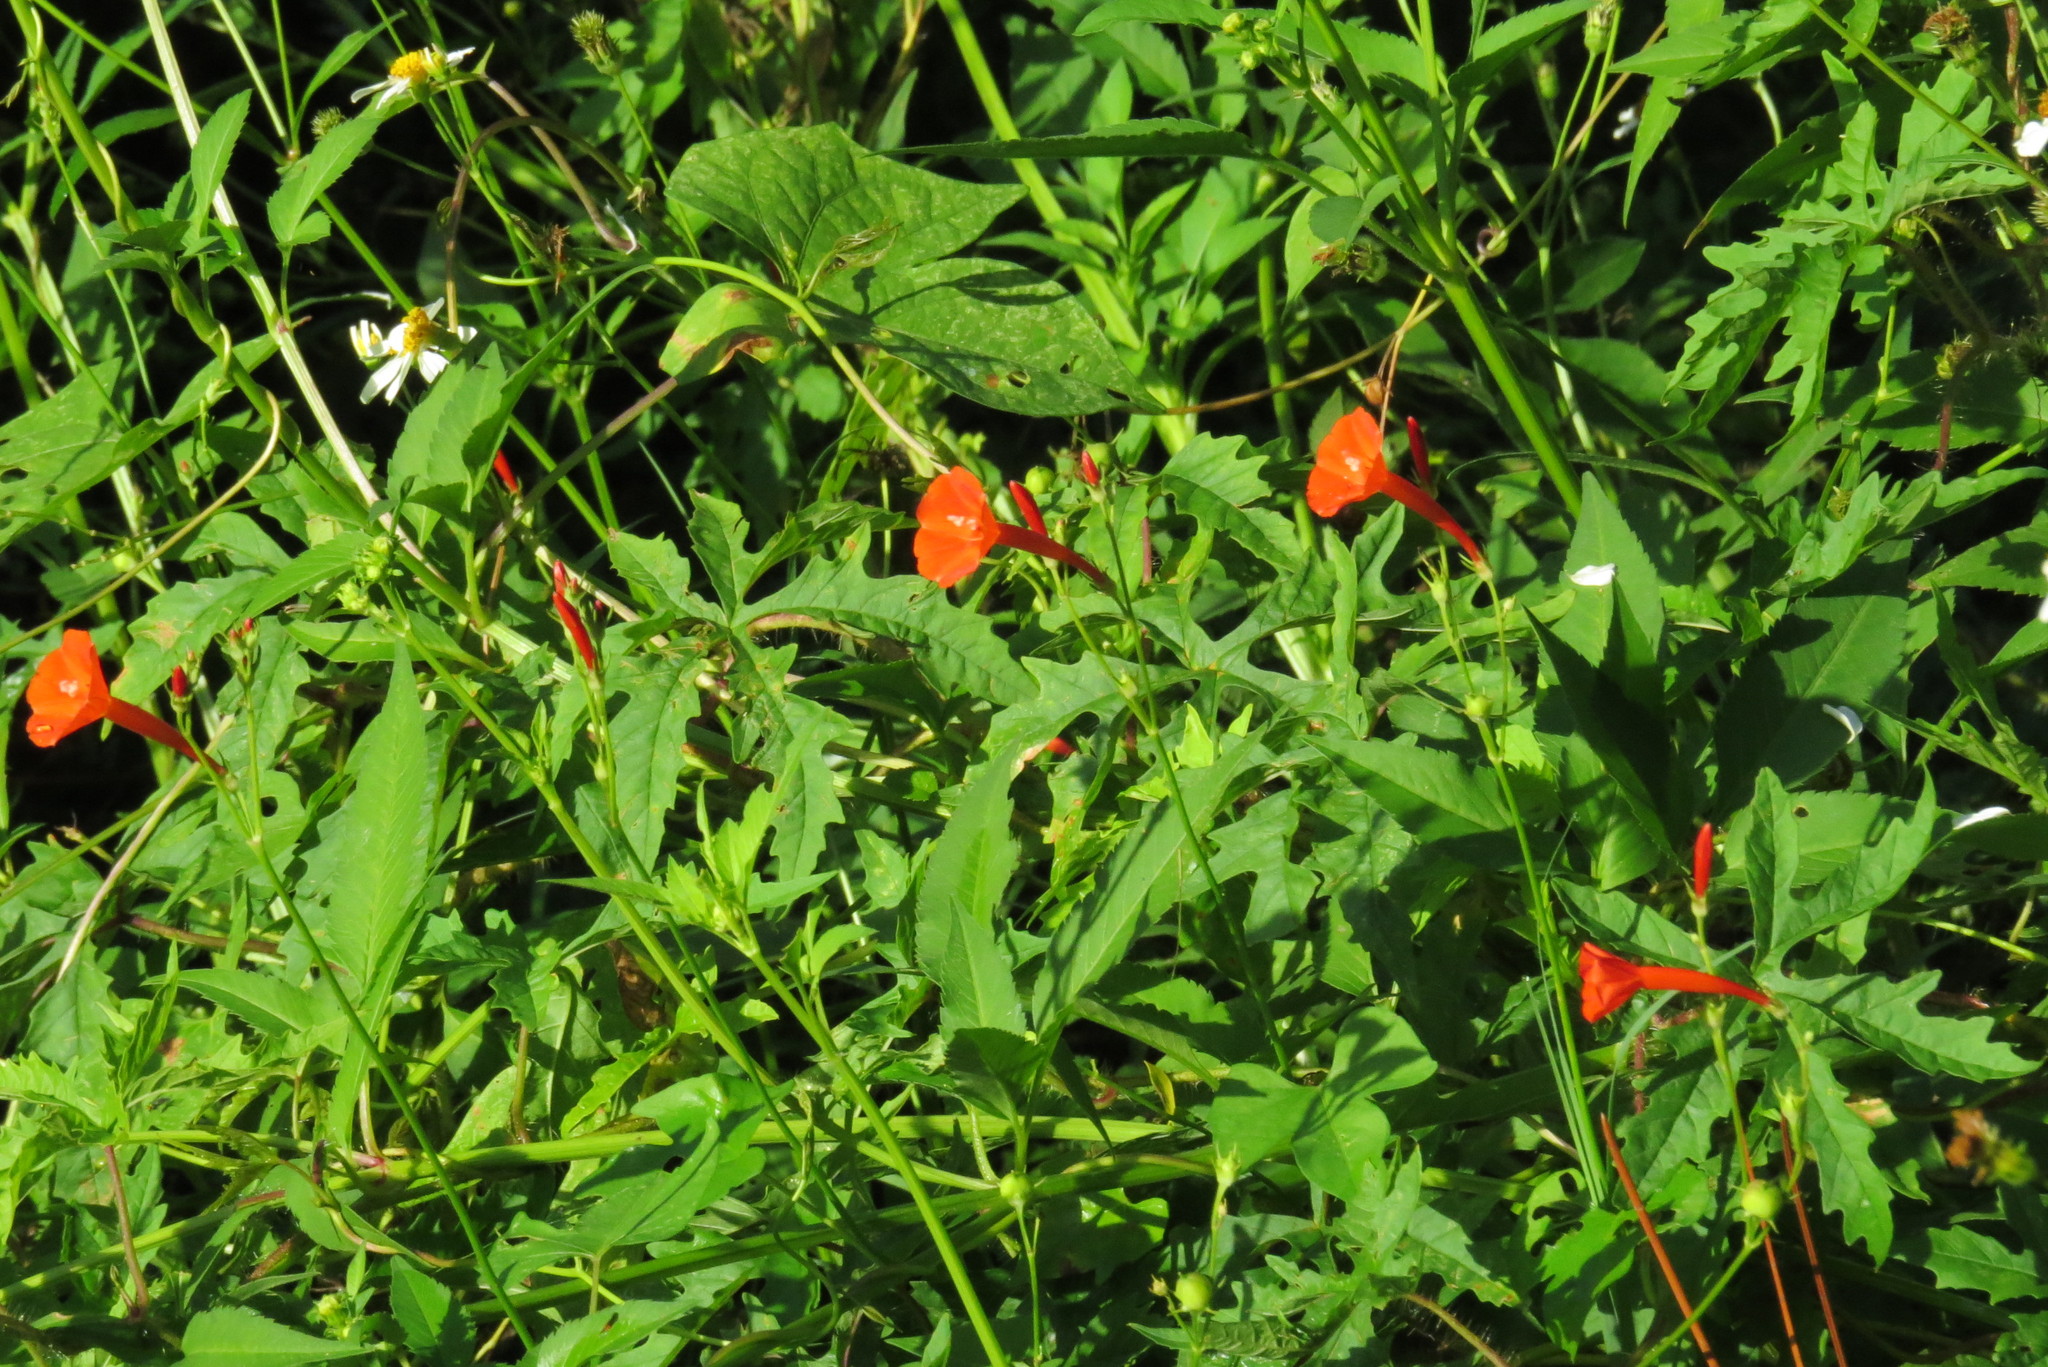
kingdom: Plantae
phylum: Tracheophyta
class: Magnoliopsida
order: Solanales
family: Convolvulaceae
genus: Ipomoea
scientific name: Ipomoea hederifolia
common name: Ivy-leaf morning-glory
